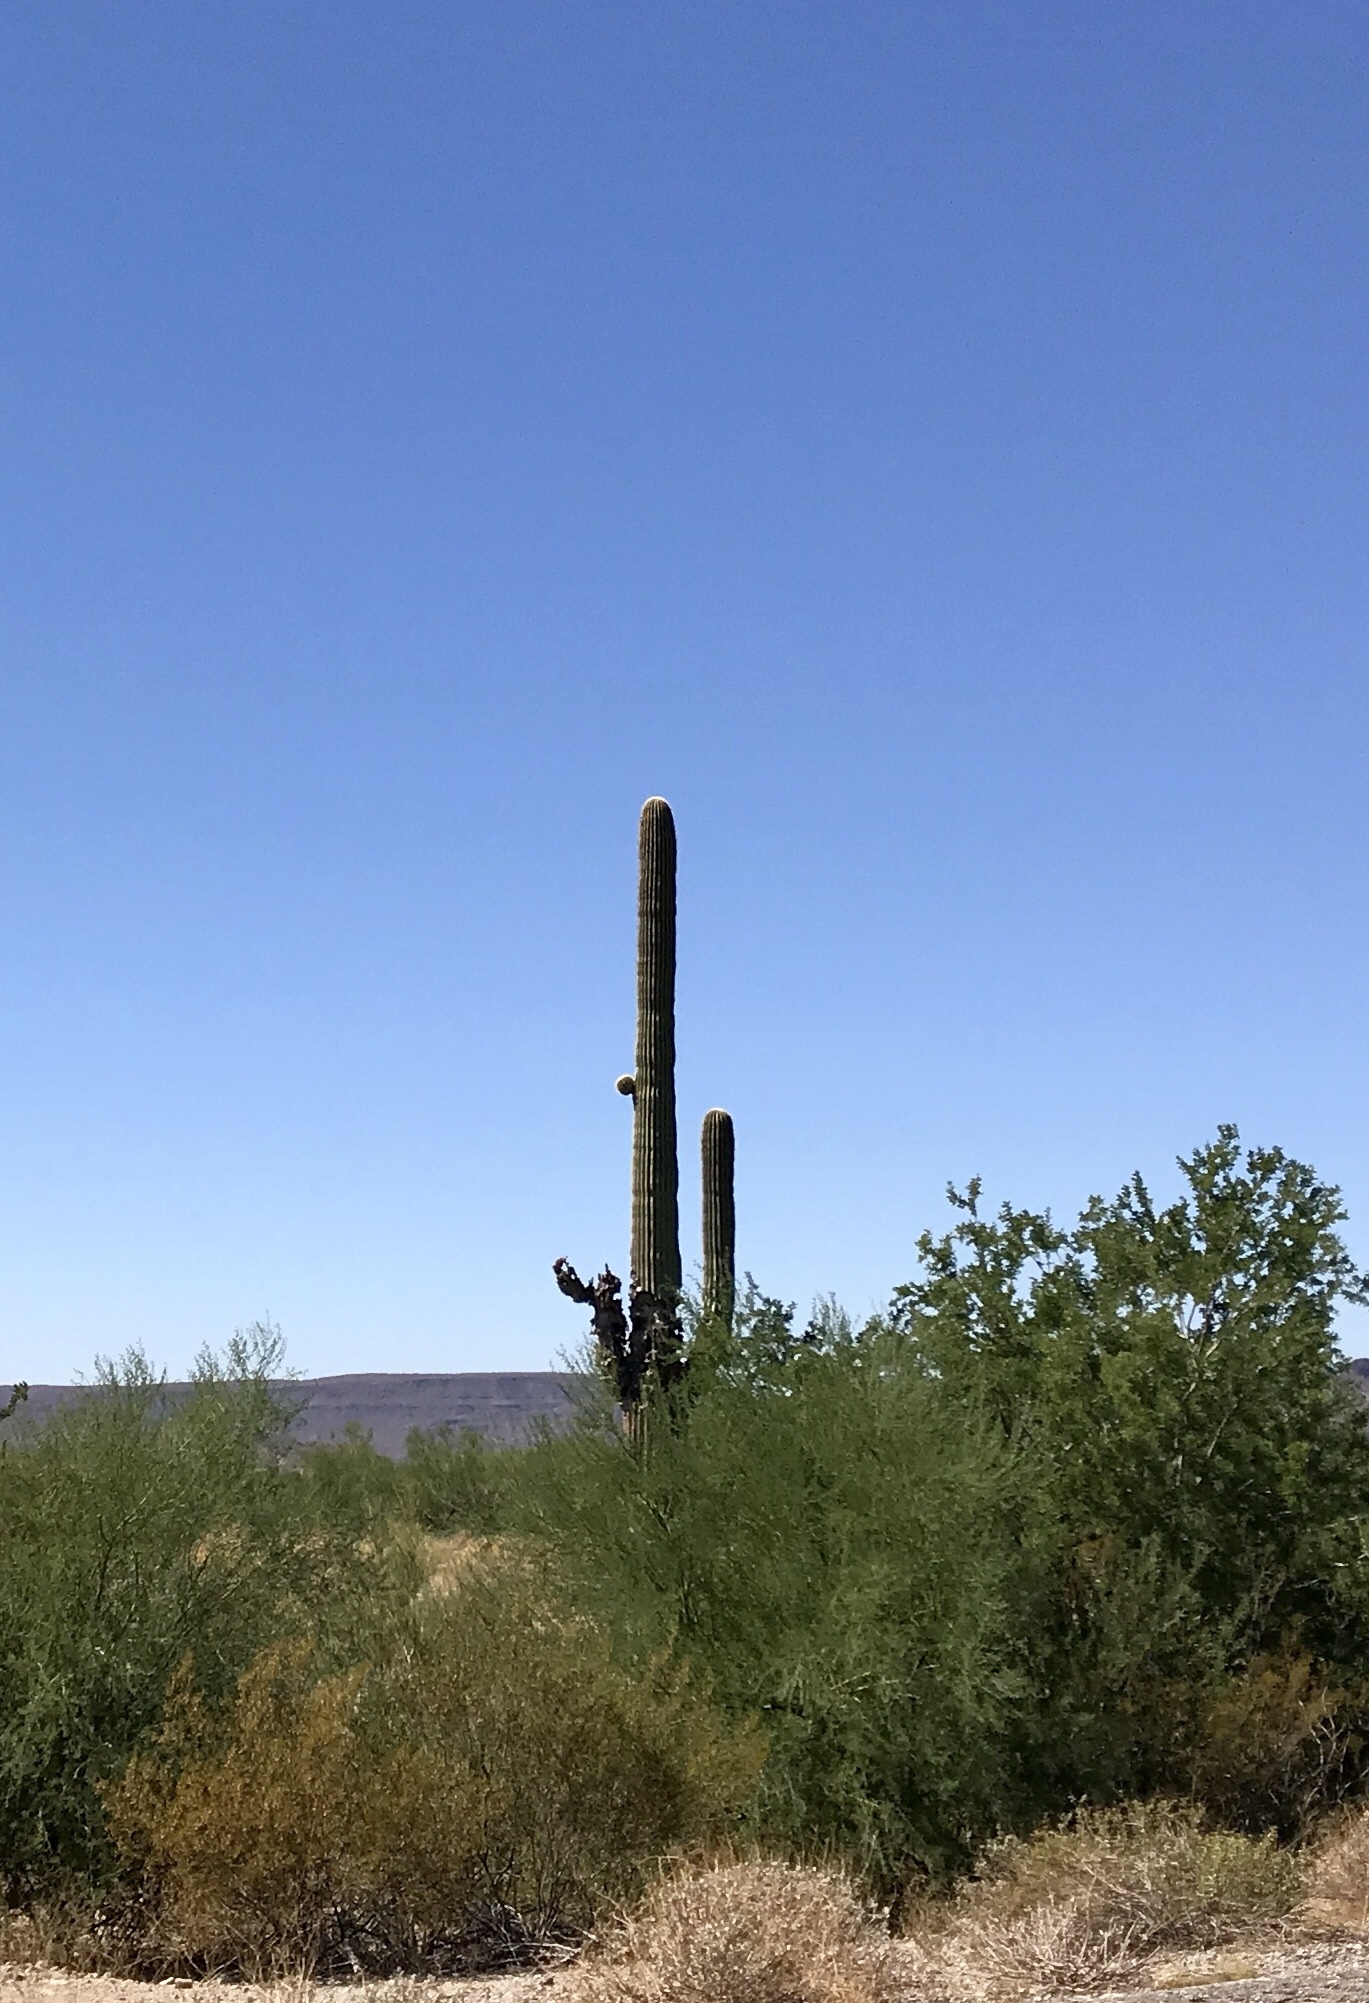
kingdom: Plantae
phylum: Tracheophyta
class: Magnoliopsida
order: Caryophyllales
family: Cactaceae
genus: Carnegiea
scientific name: Carnegiea gigantea
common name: Saguaro
